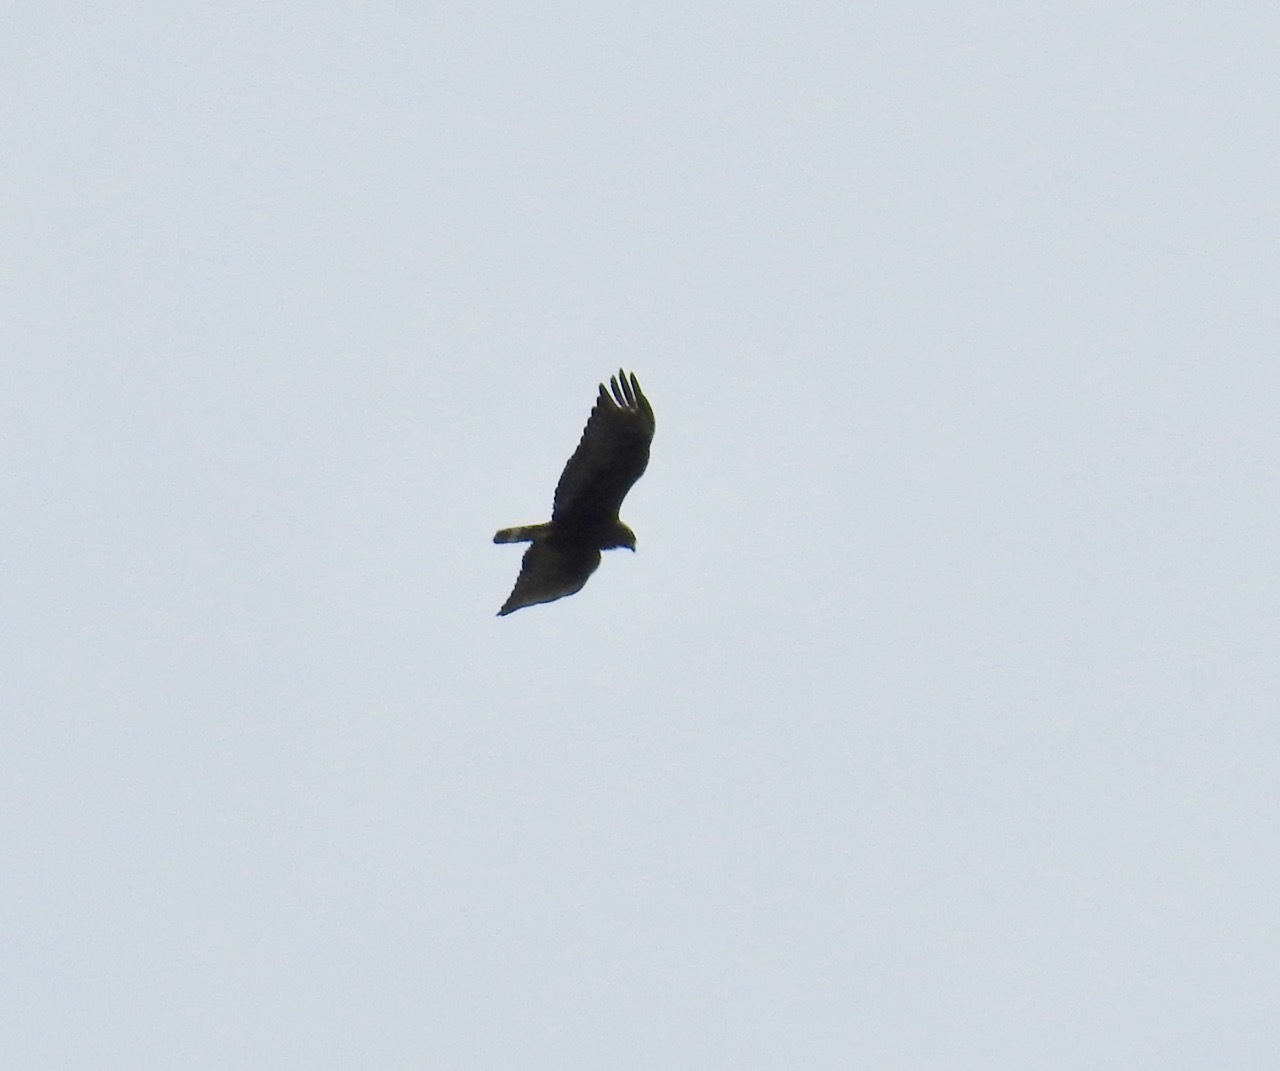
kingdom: Animalia
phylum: Chordata
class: Aves
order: Accipitriformes
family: Accipitridae
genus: Buteo
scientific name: Buteo albonotatus
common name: Zone-tailed hawk
